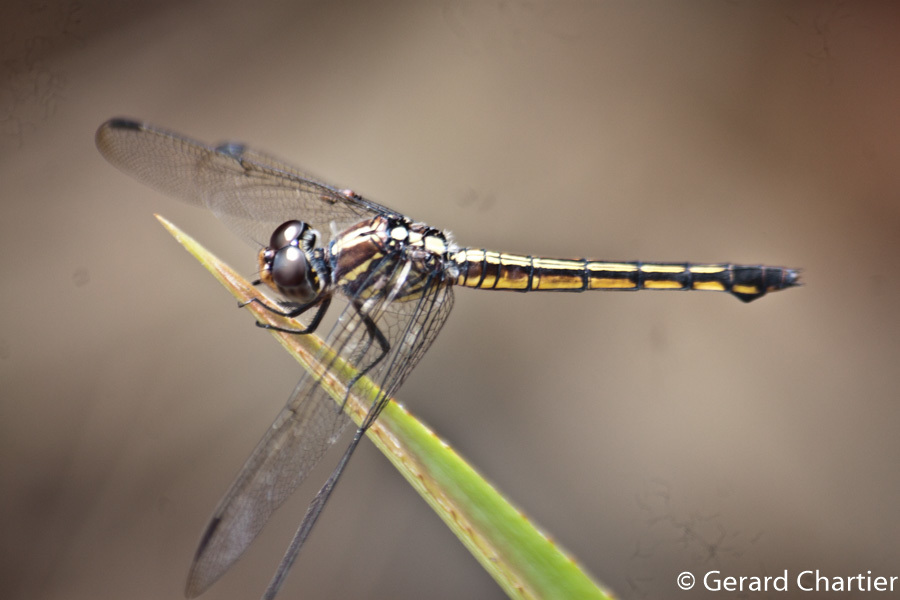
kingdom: Animalia
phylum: Arthropoda
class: Insecta
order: Odonata
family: Libellulidae
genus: Potamarcha
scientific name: Potamarcha congener
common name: Blue chaser
